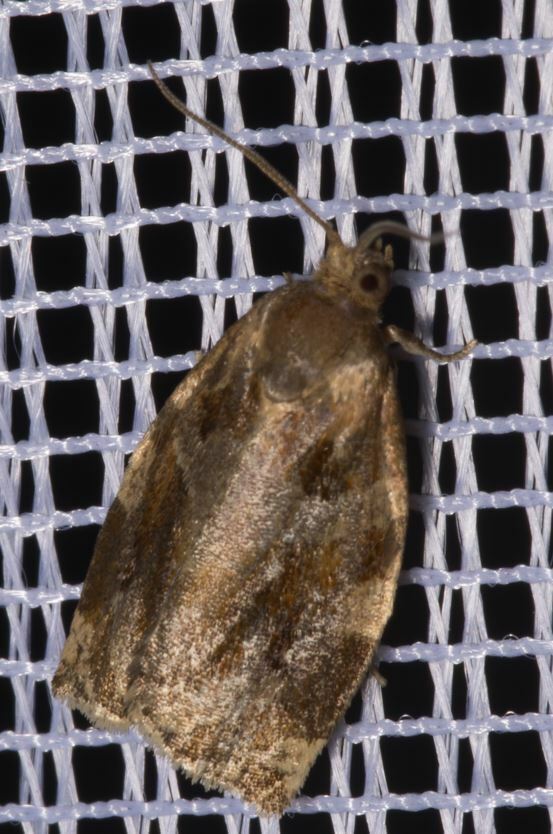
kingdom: Animalia
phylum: Arthropoda
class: Insecta
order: Lepidoptera
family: Tortricidae
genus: Archips
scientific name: Archips xylosteana
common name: Variegated golden tortrix
